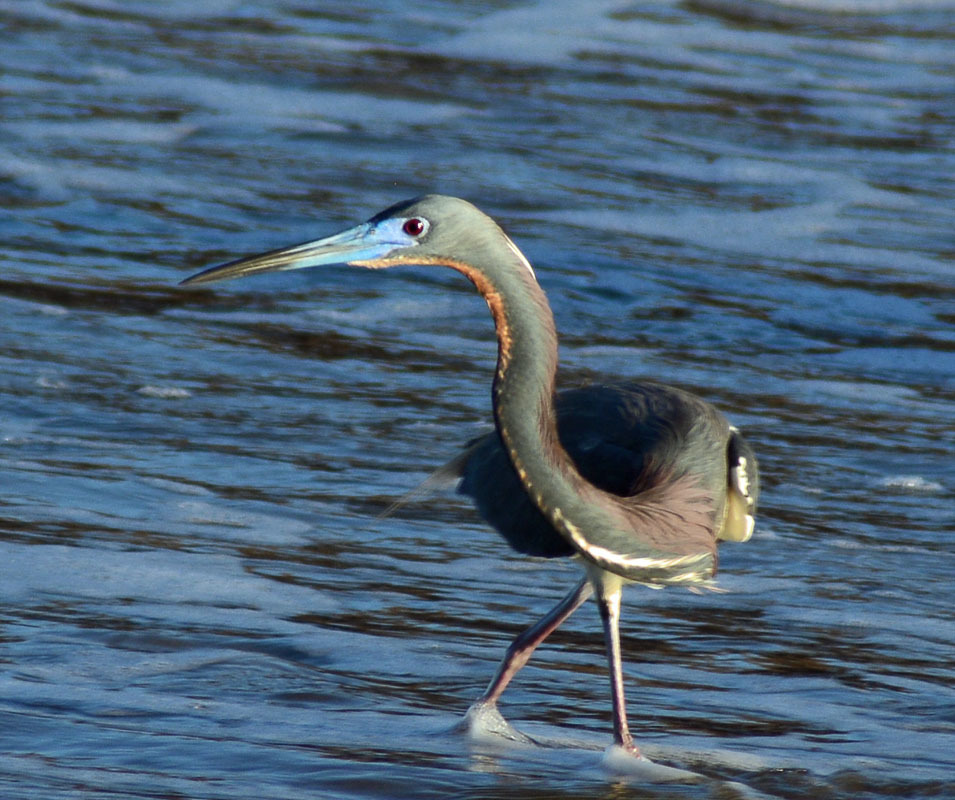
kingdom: Animalia
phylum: Chordata
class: Aves
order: Pelecaniformes
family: Ardeidae
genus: Egretta
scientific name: Egretta tricolor
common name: Tricolored heron
